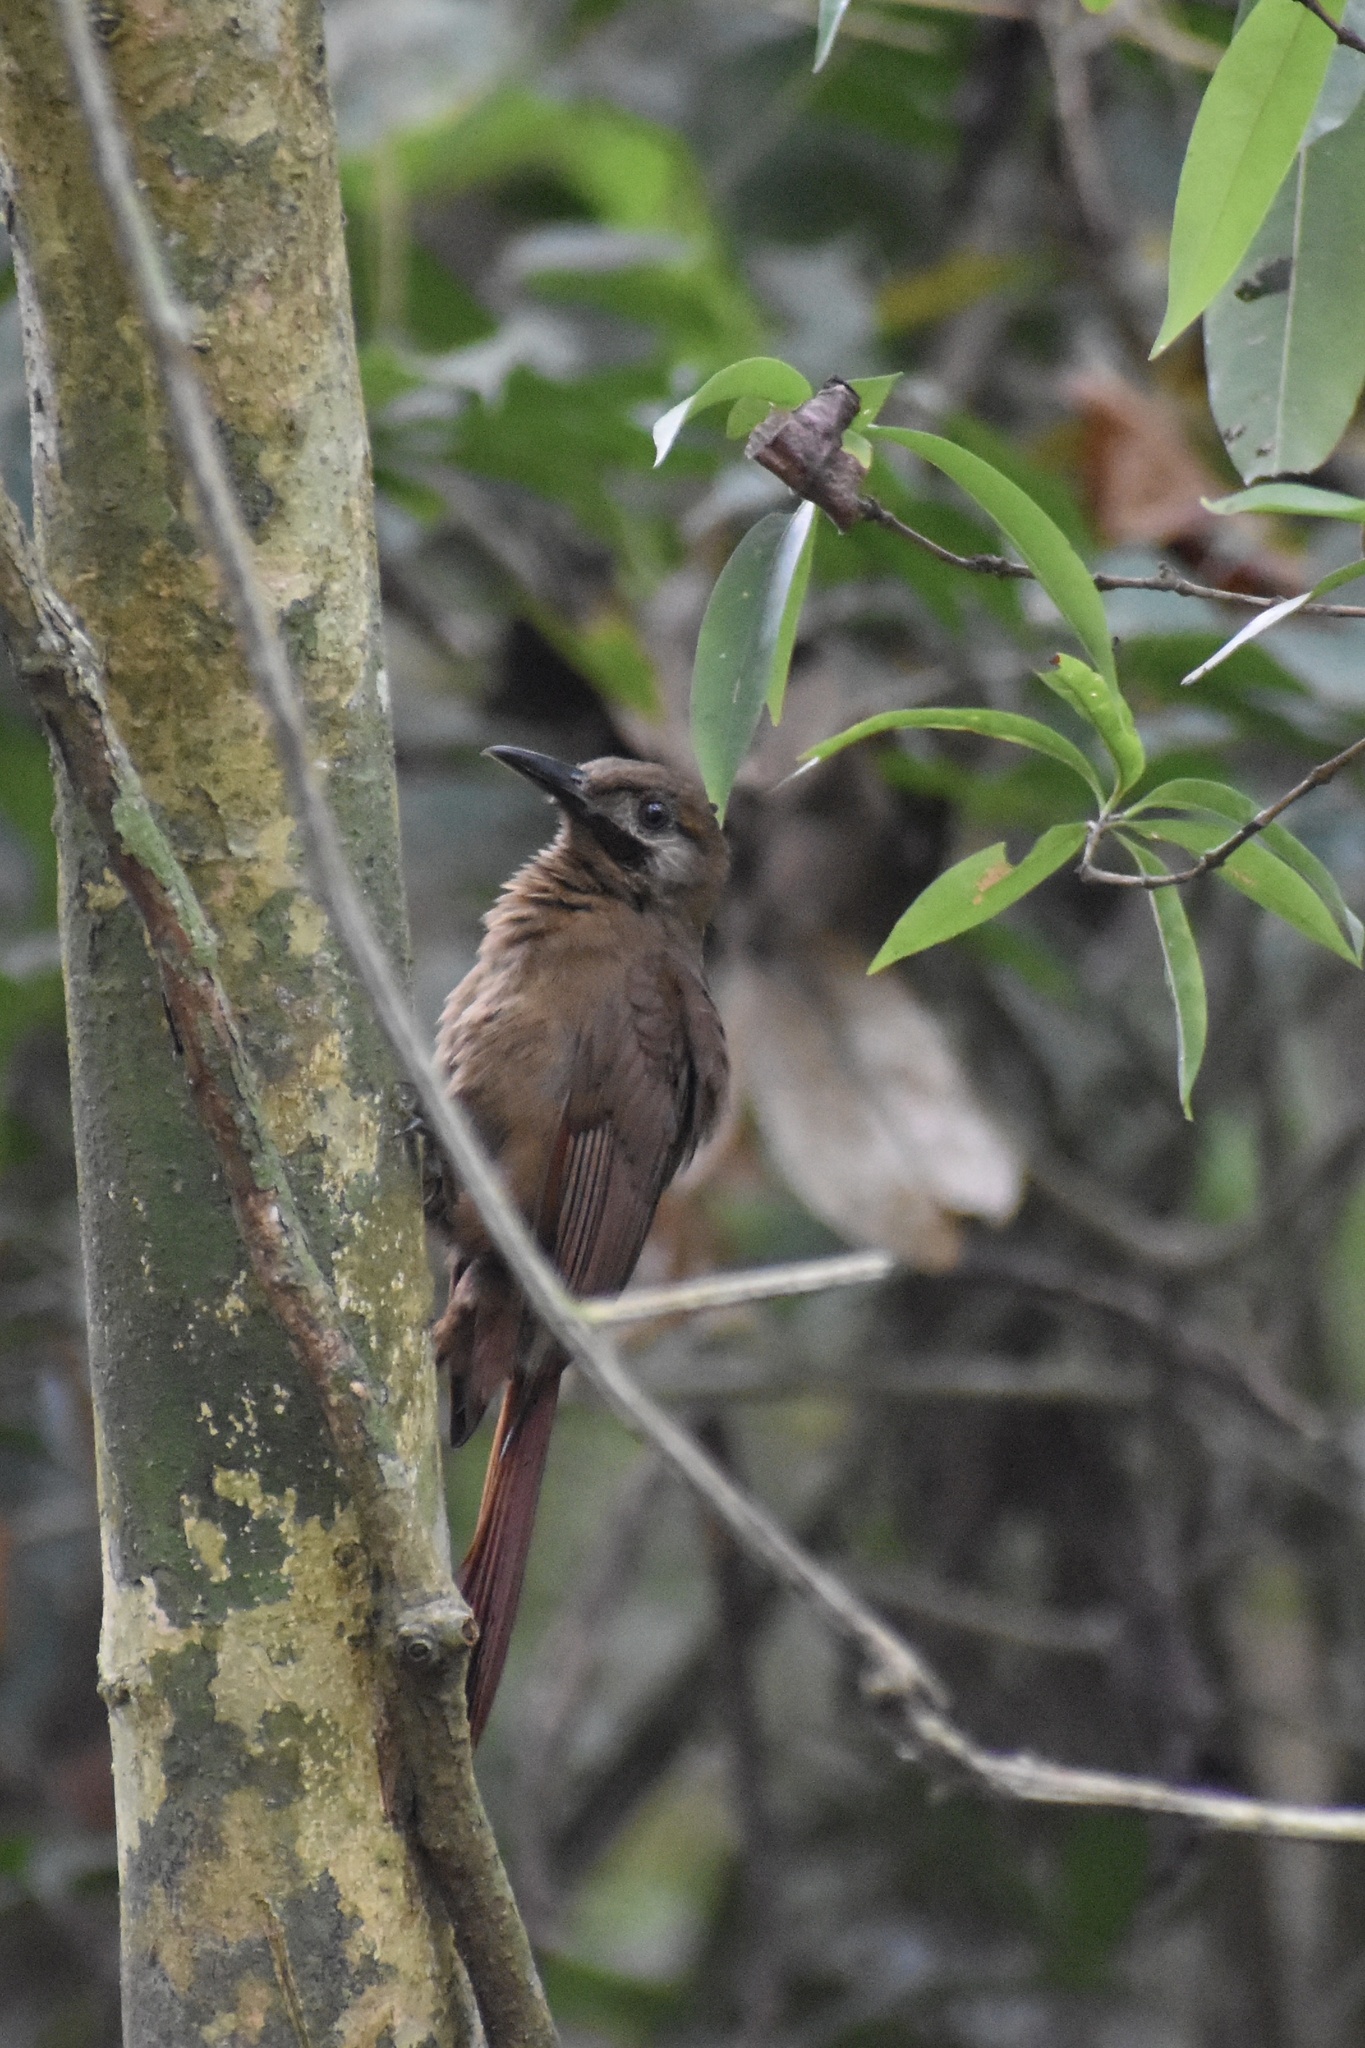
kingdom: Animalia
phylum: Chordata
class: Aves
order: Passeriformes
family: Furnariidae
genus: Dendrocincla
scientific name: Dendrocincla fuliginosa
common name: Plain-brown woodcreeper
